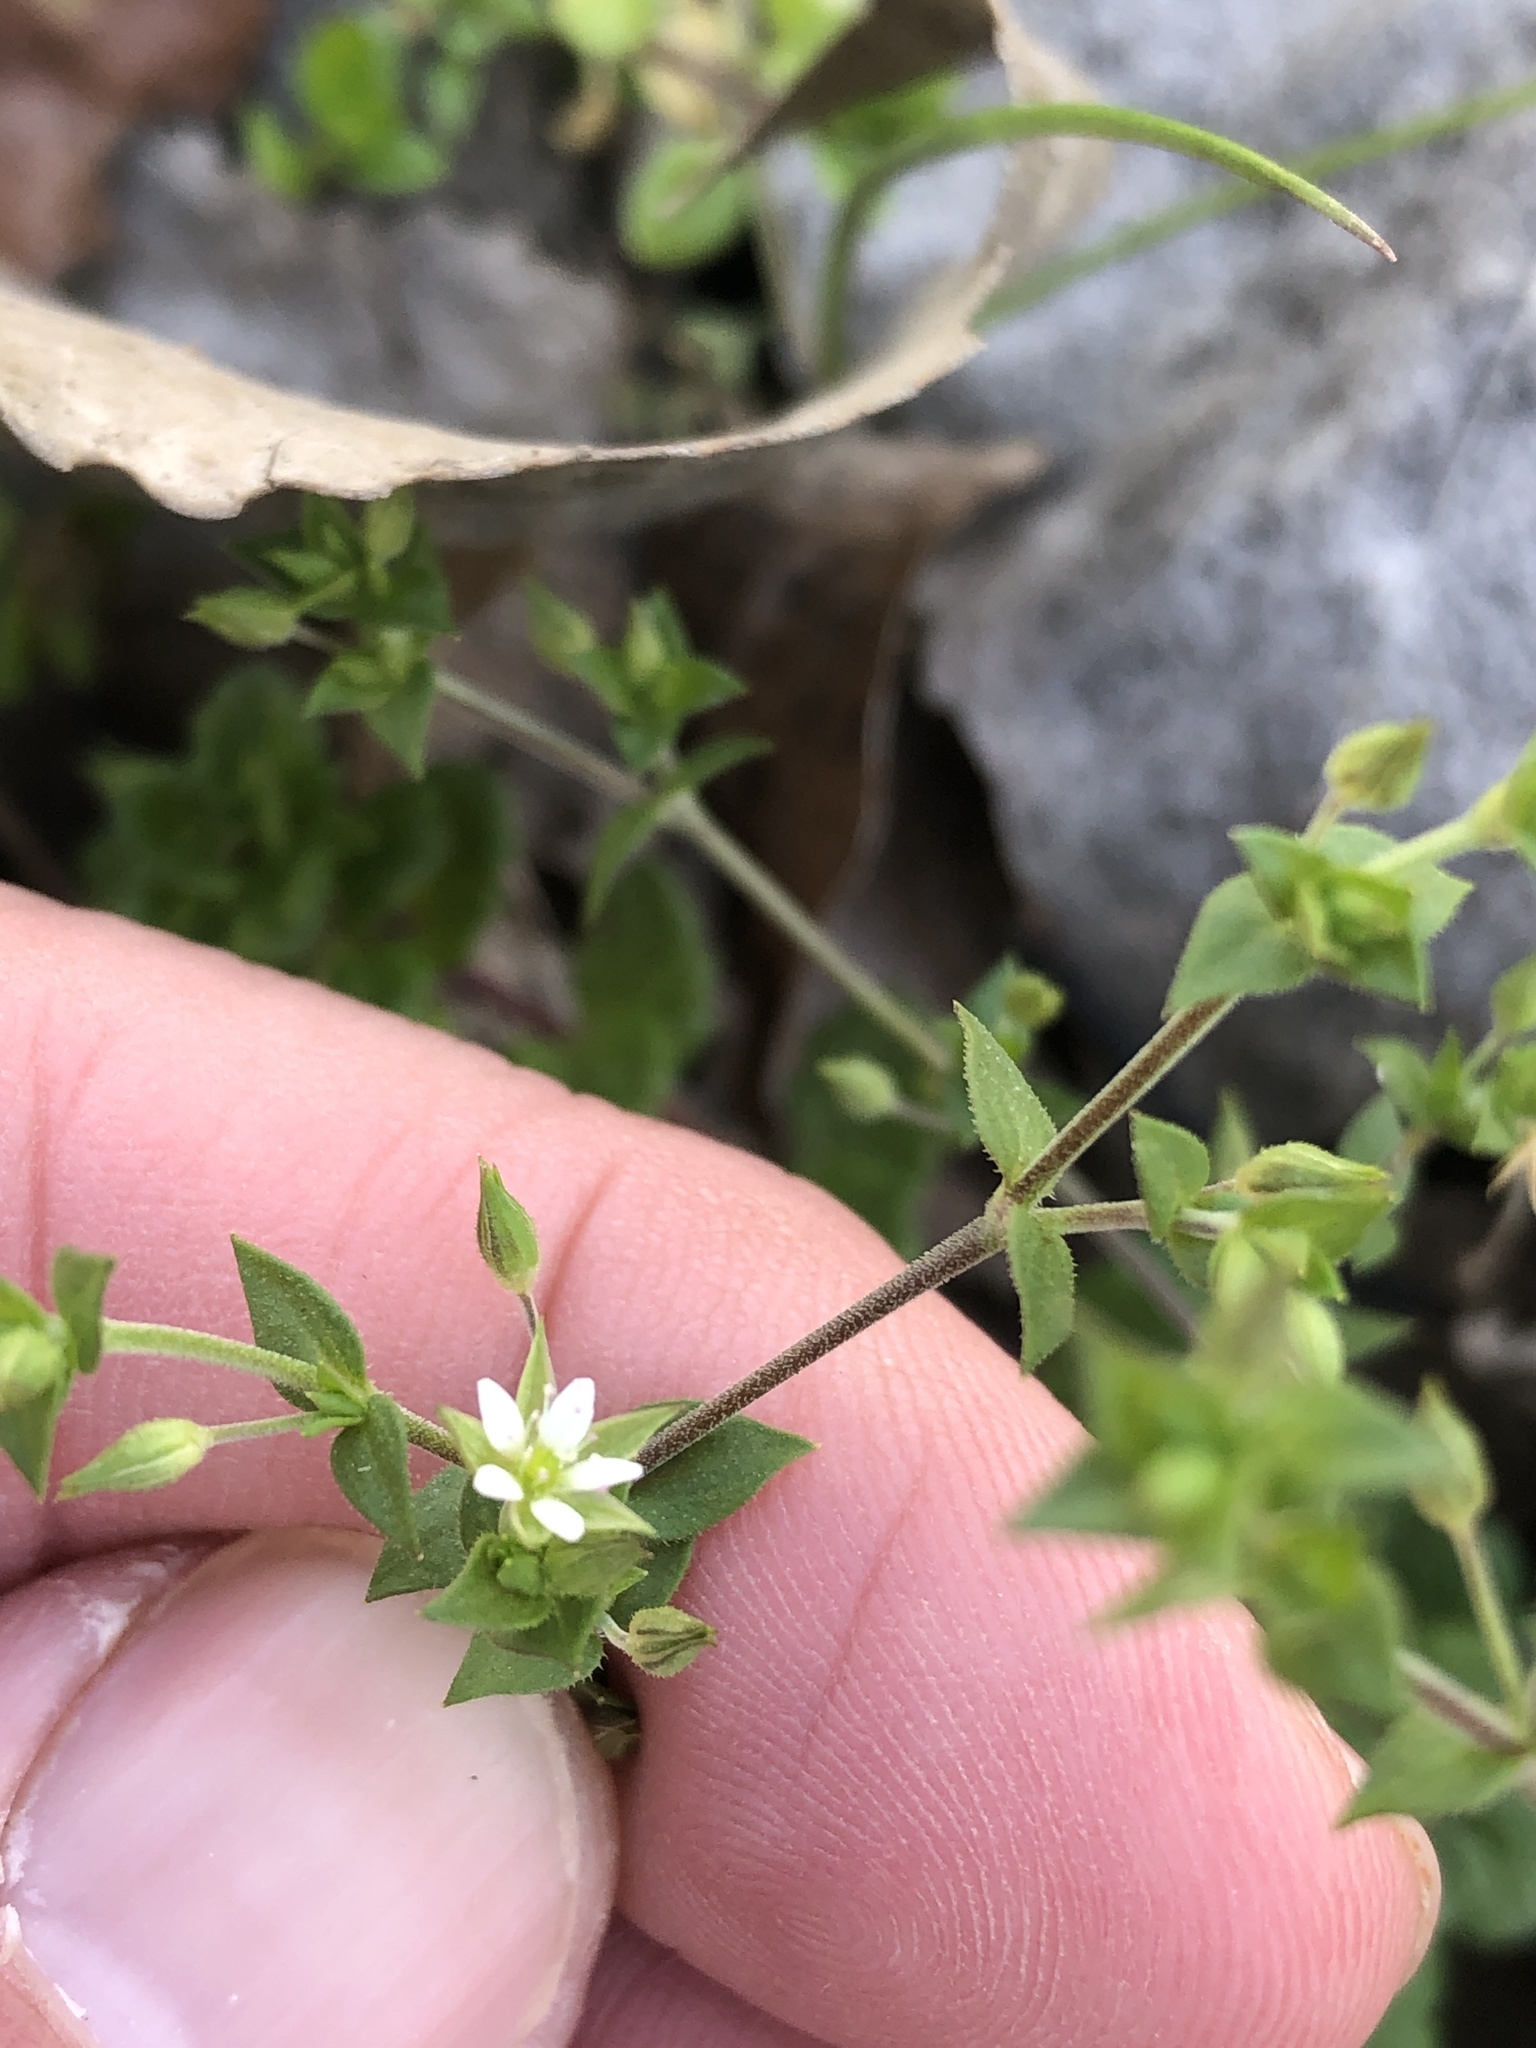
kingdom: Plantae
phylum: Tracheophyta
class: Magnoliopsida
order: Caryophyllales
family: Caryophyllaceae
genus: Arenaria
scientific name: Arenaria serpyllifolia
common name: Thyme-leaved sandwort
